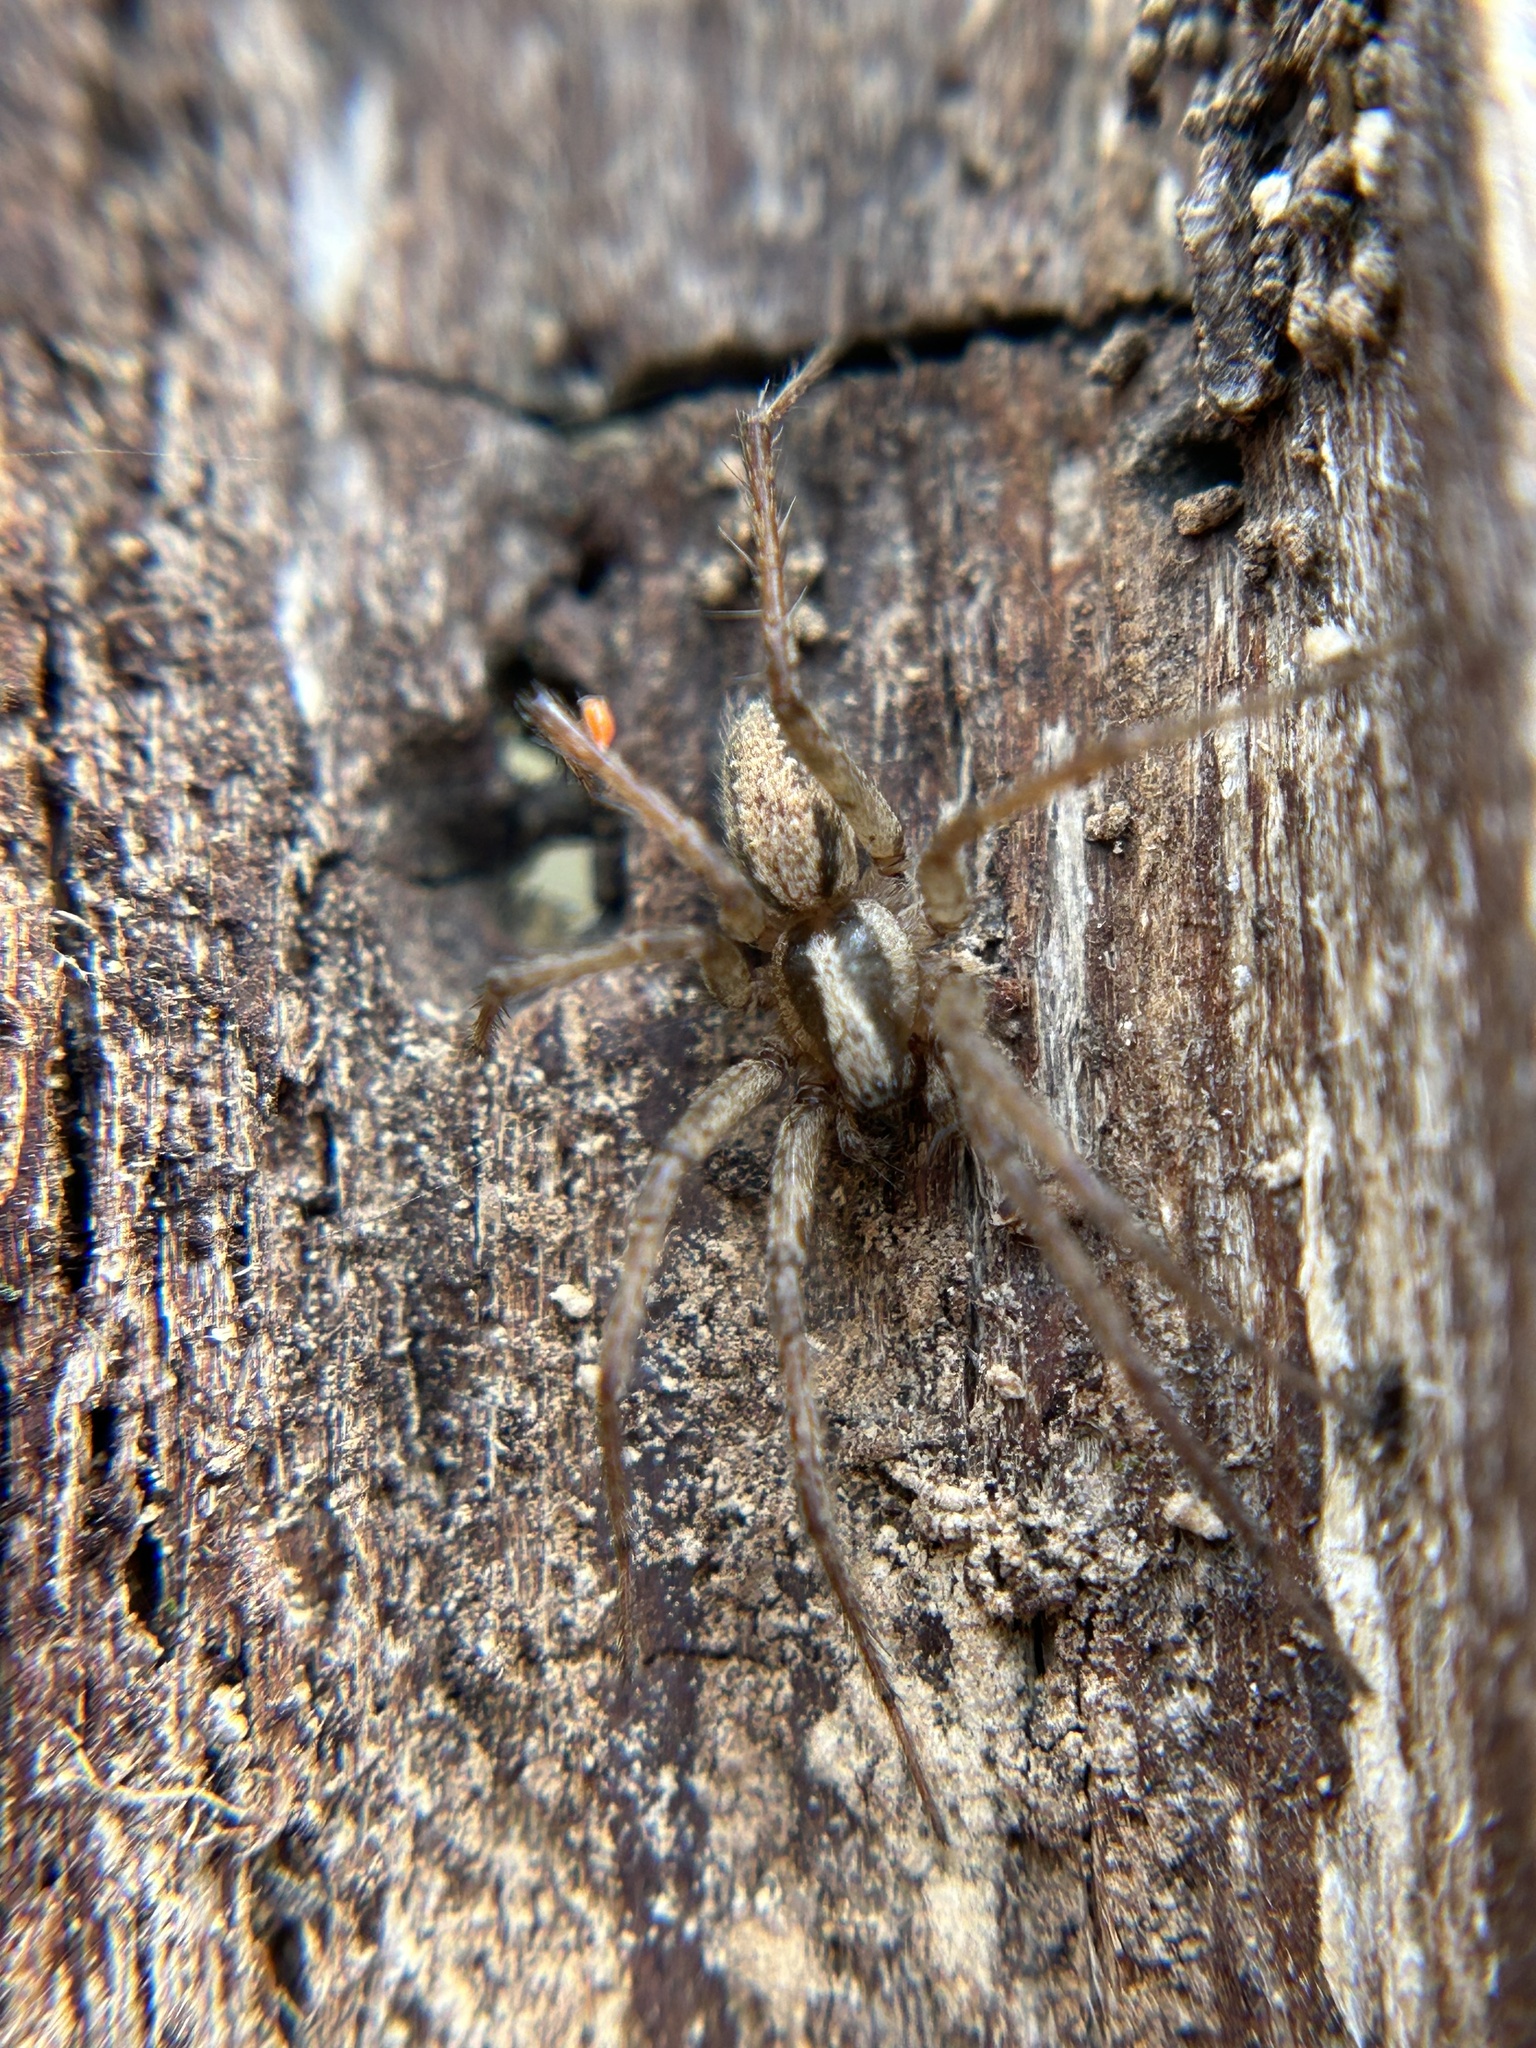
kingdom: Animalia
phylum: Arthropoda
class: Arachnida
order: Araneae
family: Agelenidae
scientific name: Agelenidae
